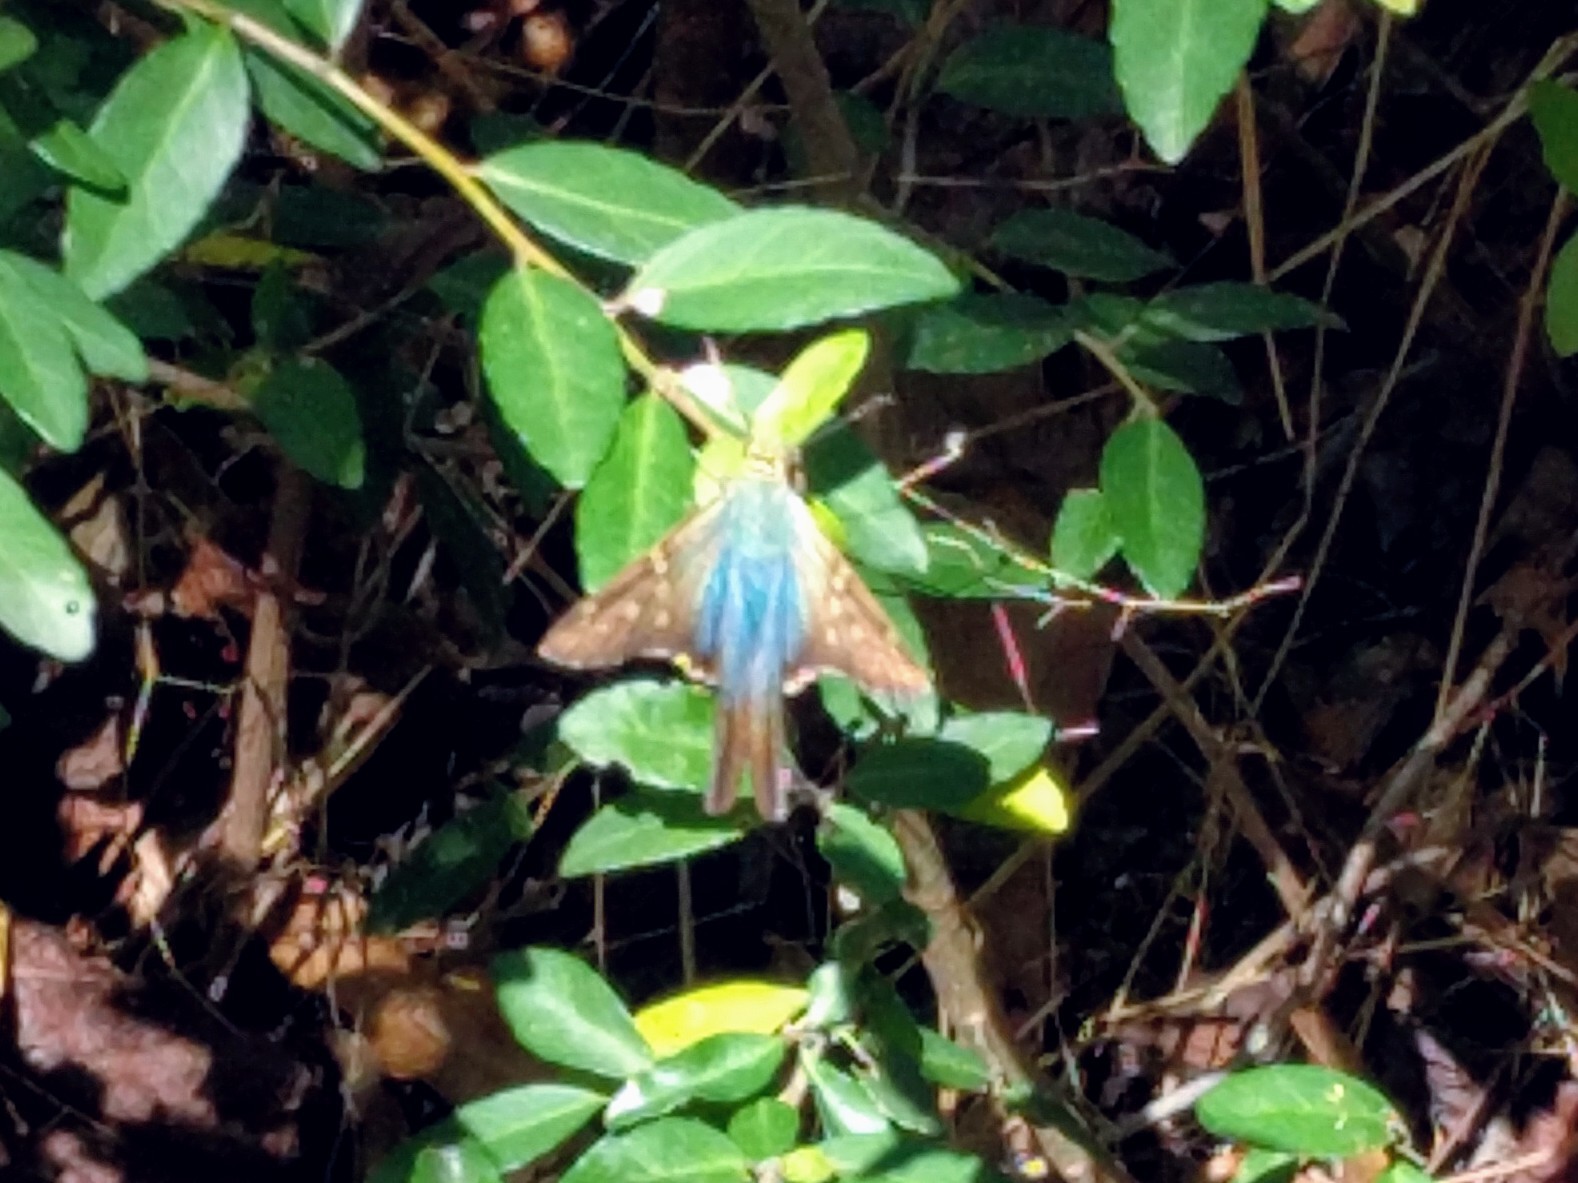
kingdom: Animalia
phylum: Arthropoda
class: Insecta
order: Lepidoptera
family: Hesperiidae
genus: Urbanus
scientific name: Urbanus proteus
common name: Long-tailed skipper
